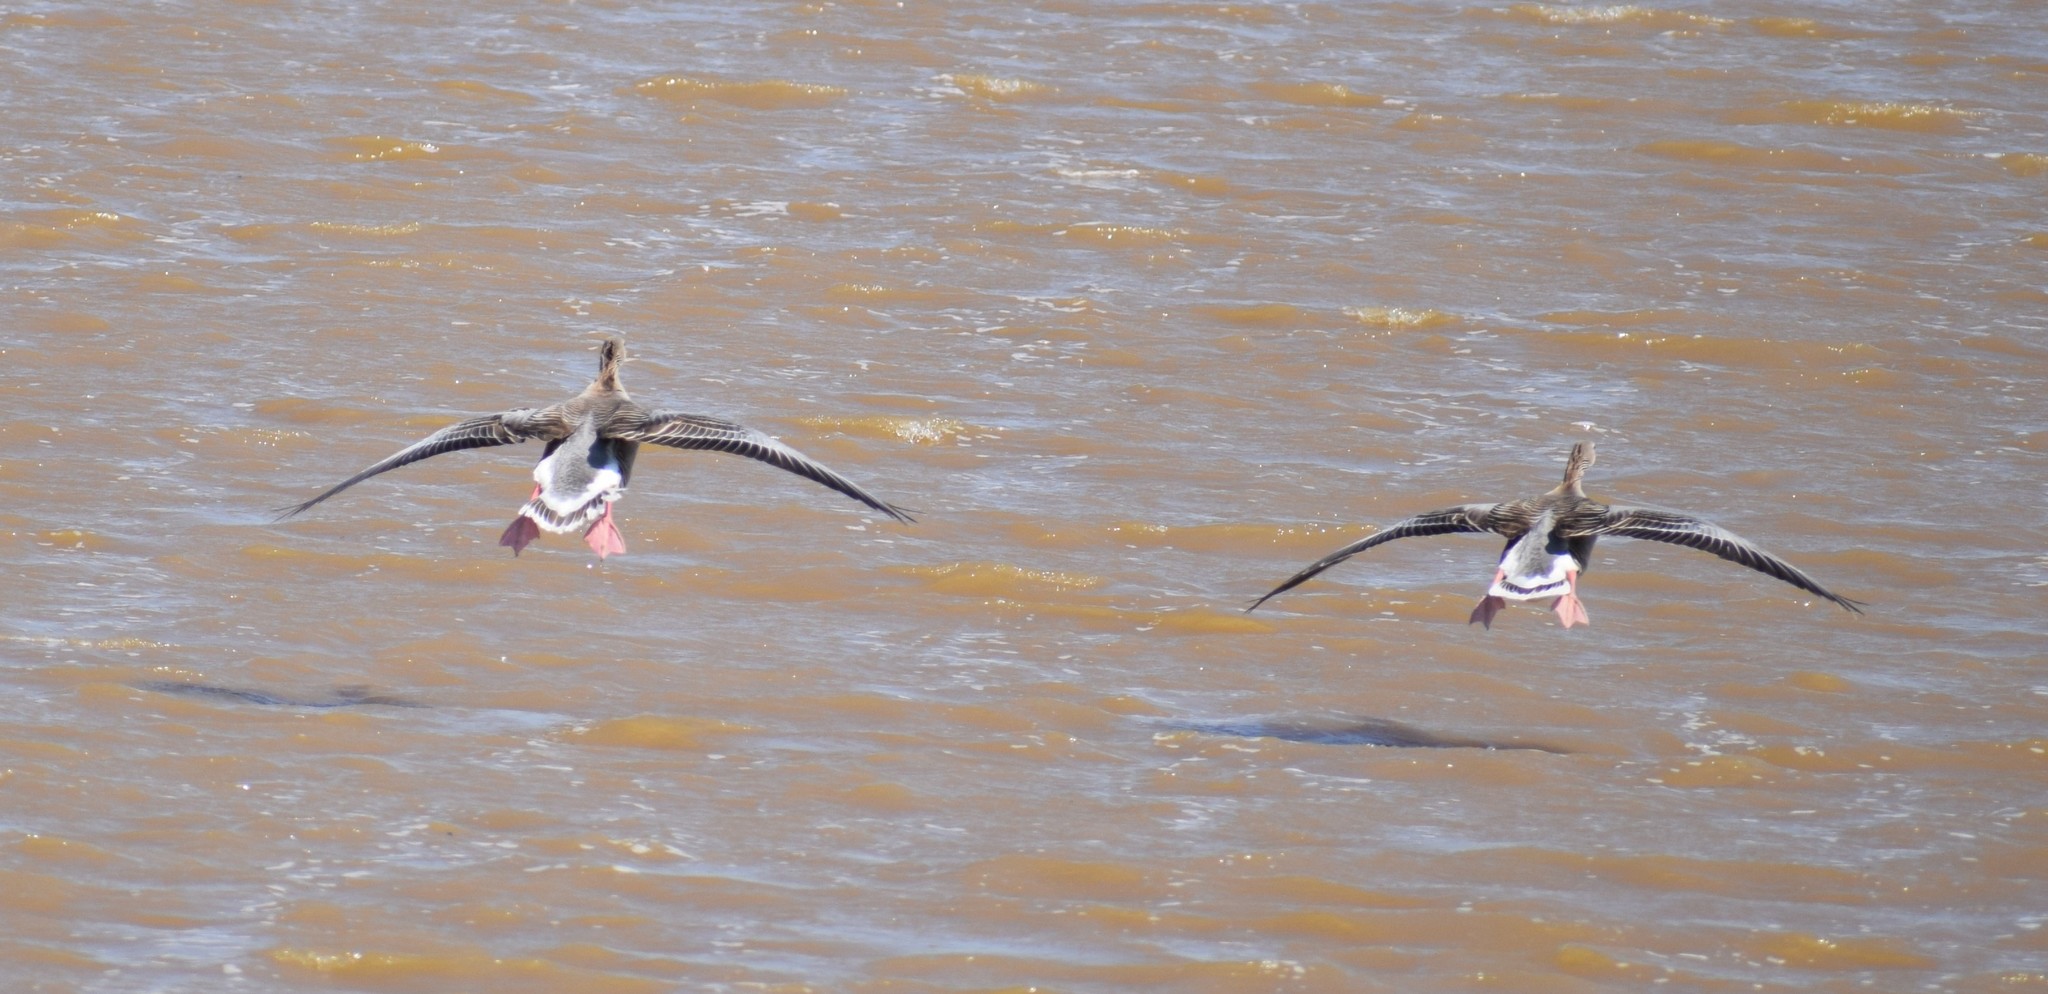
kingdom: Animalia
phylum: Chordata
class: Aves
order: Anseriformes
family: Anatidae
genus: Anser
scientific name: Anser anser
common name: Greylag goose
